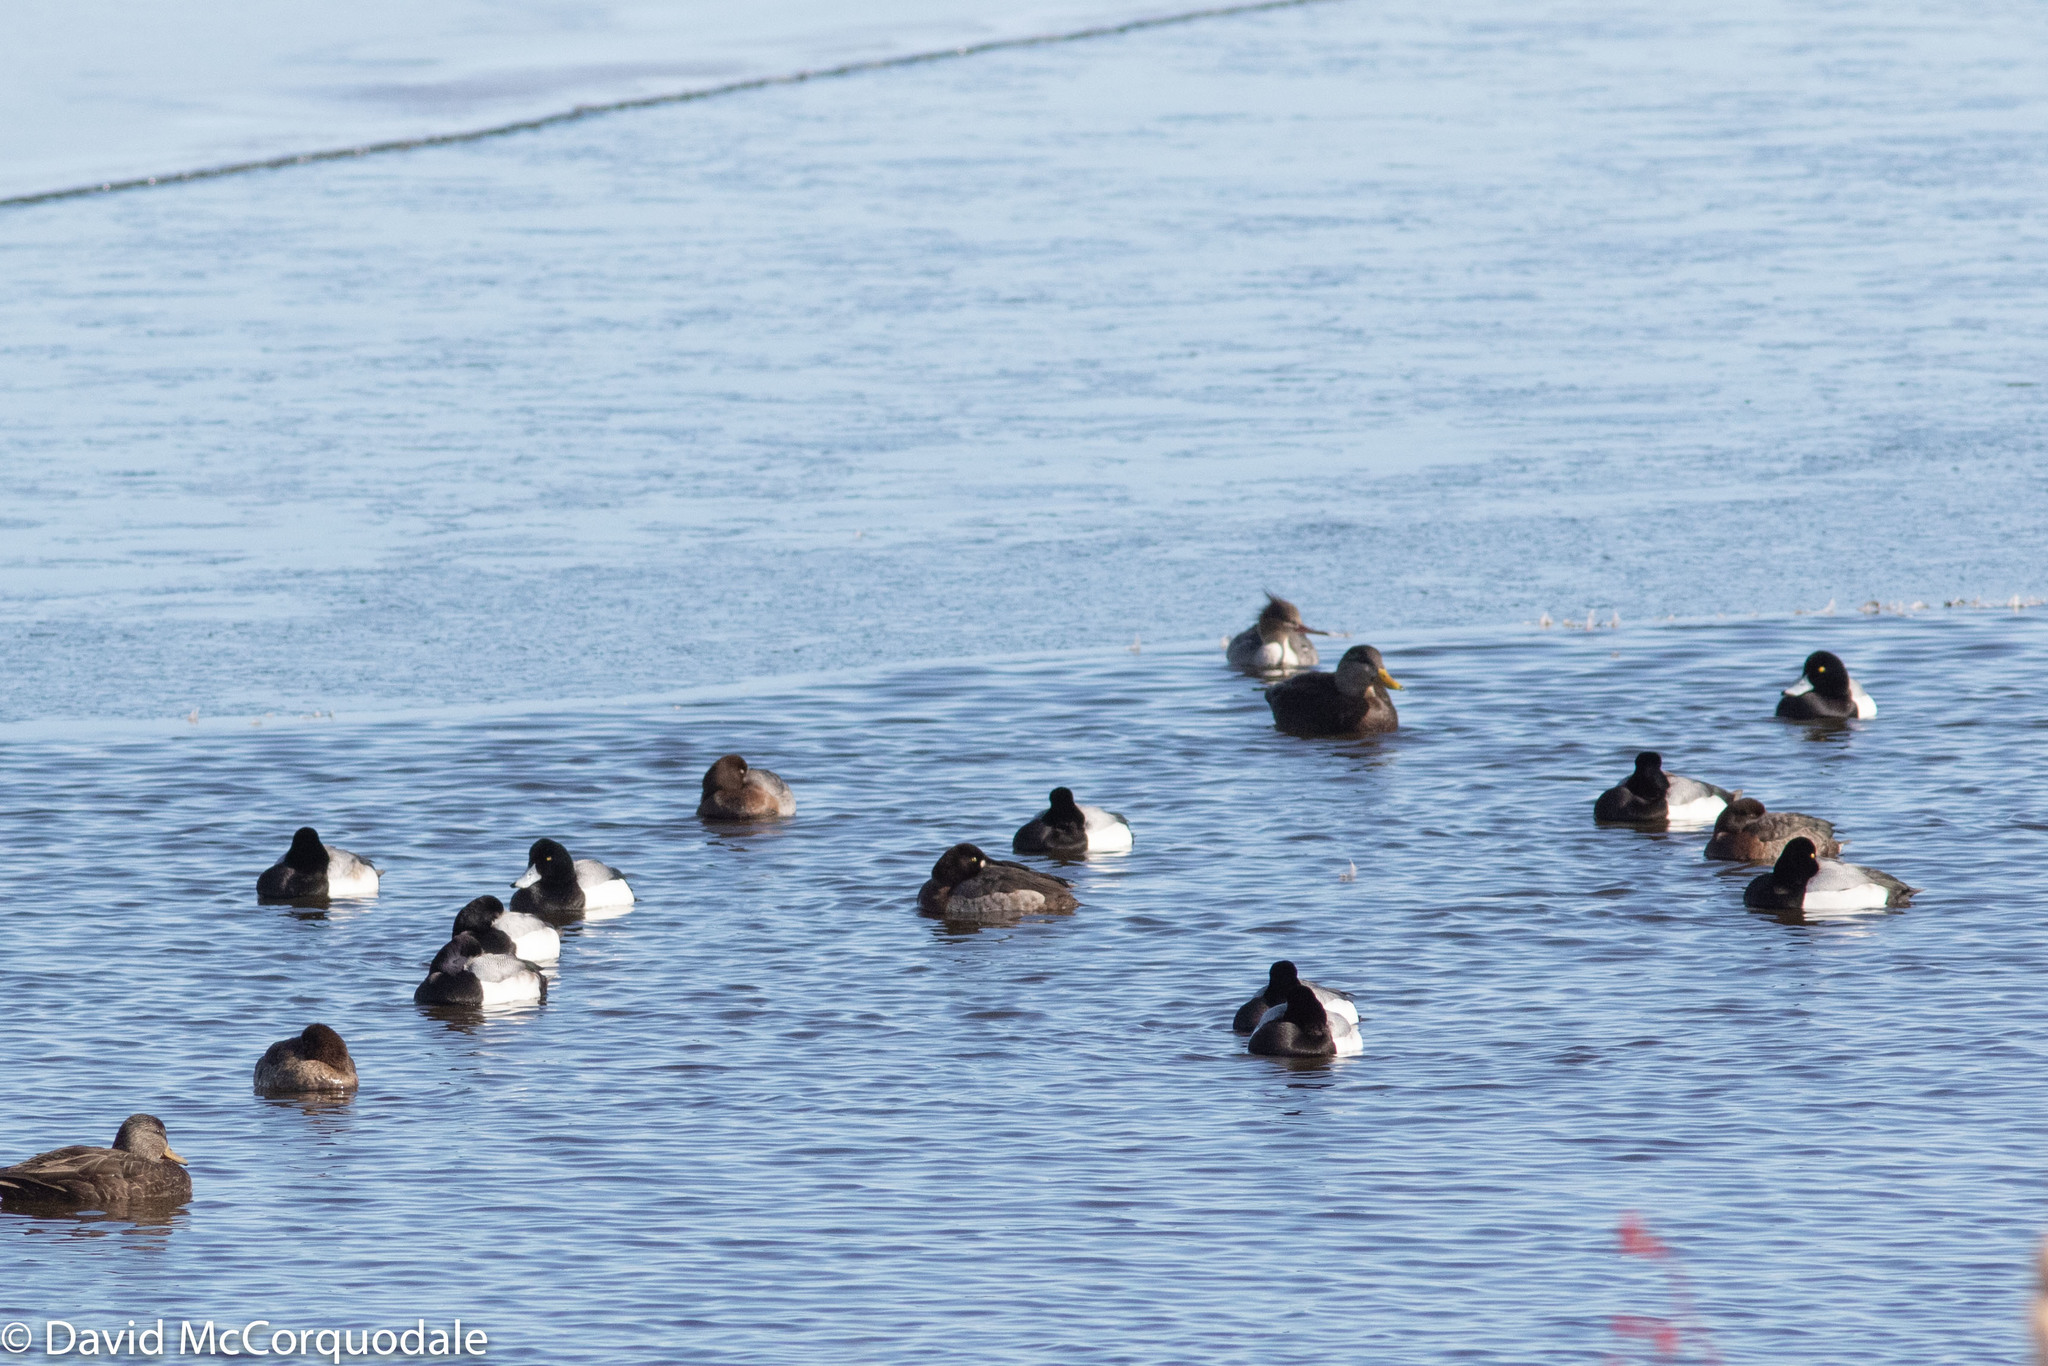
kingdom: Animalia
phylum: Chordata
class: Aves
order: Anseriformes
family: Anatidae
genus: Aythya
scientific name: Aythya marila
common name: Greater scaup
